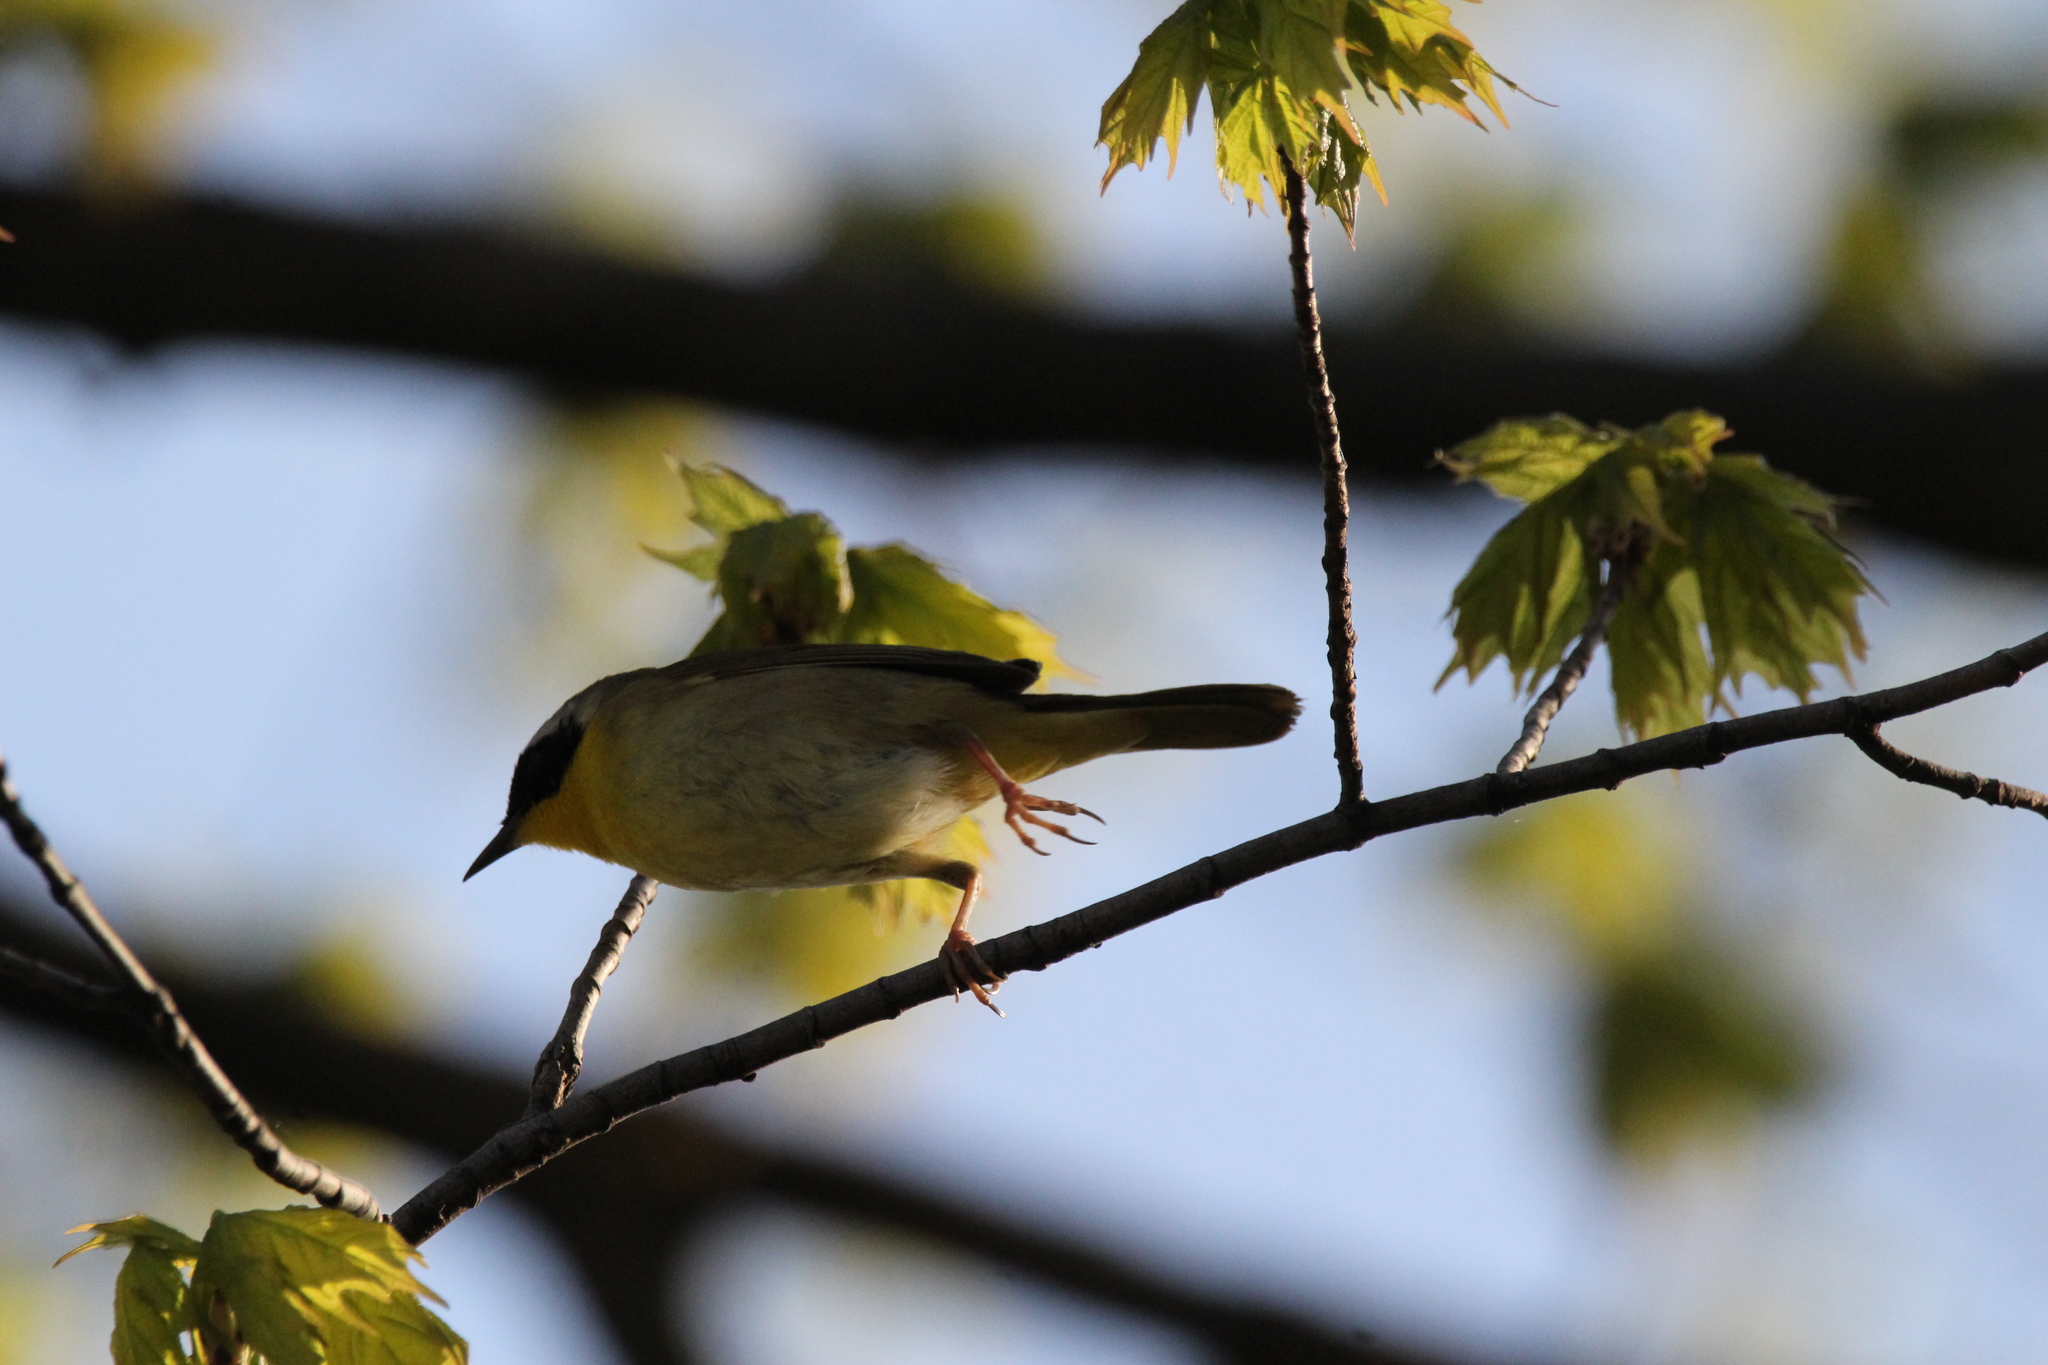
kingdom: Animalia
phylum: Chordata
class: Aves
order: Passeriformes
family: Parulidae
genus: Geothlypis
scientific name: Geothlypis trichas
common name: Common yellowthroat
